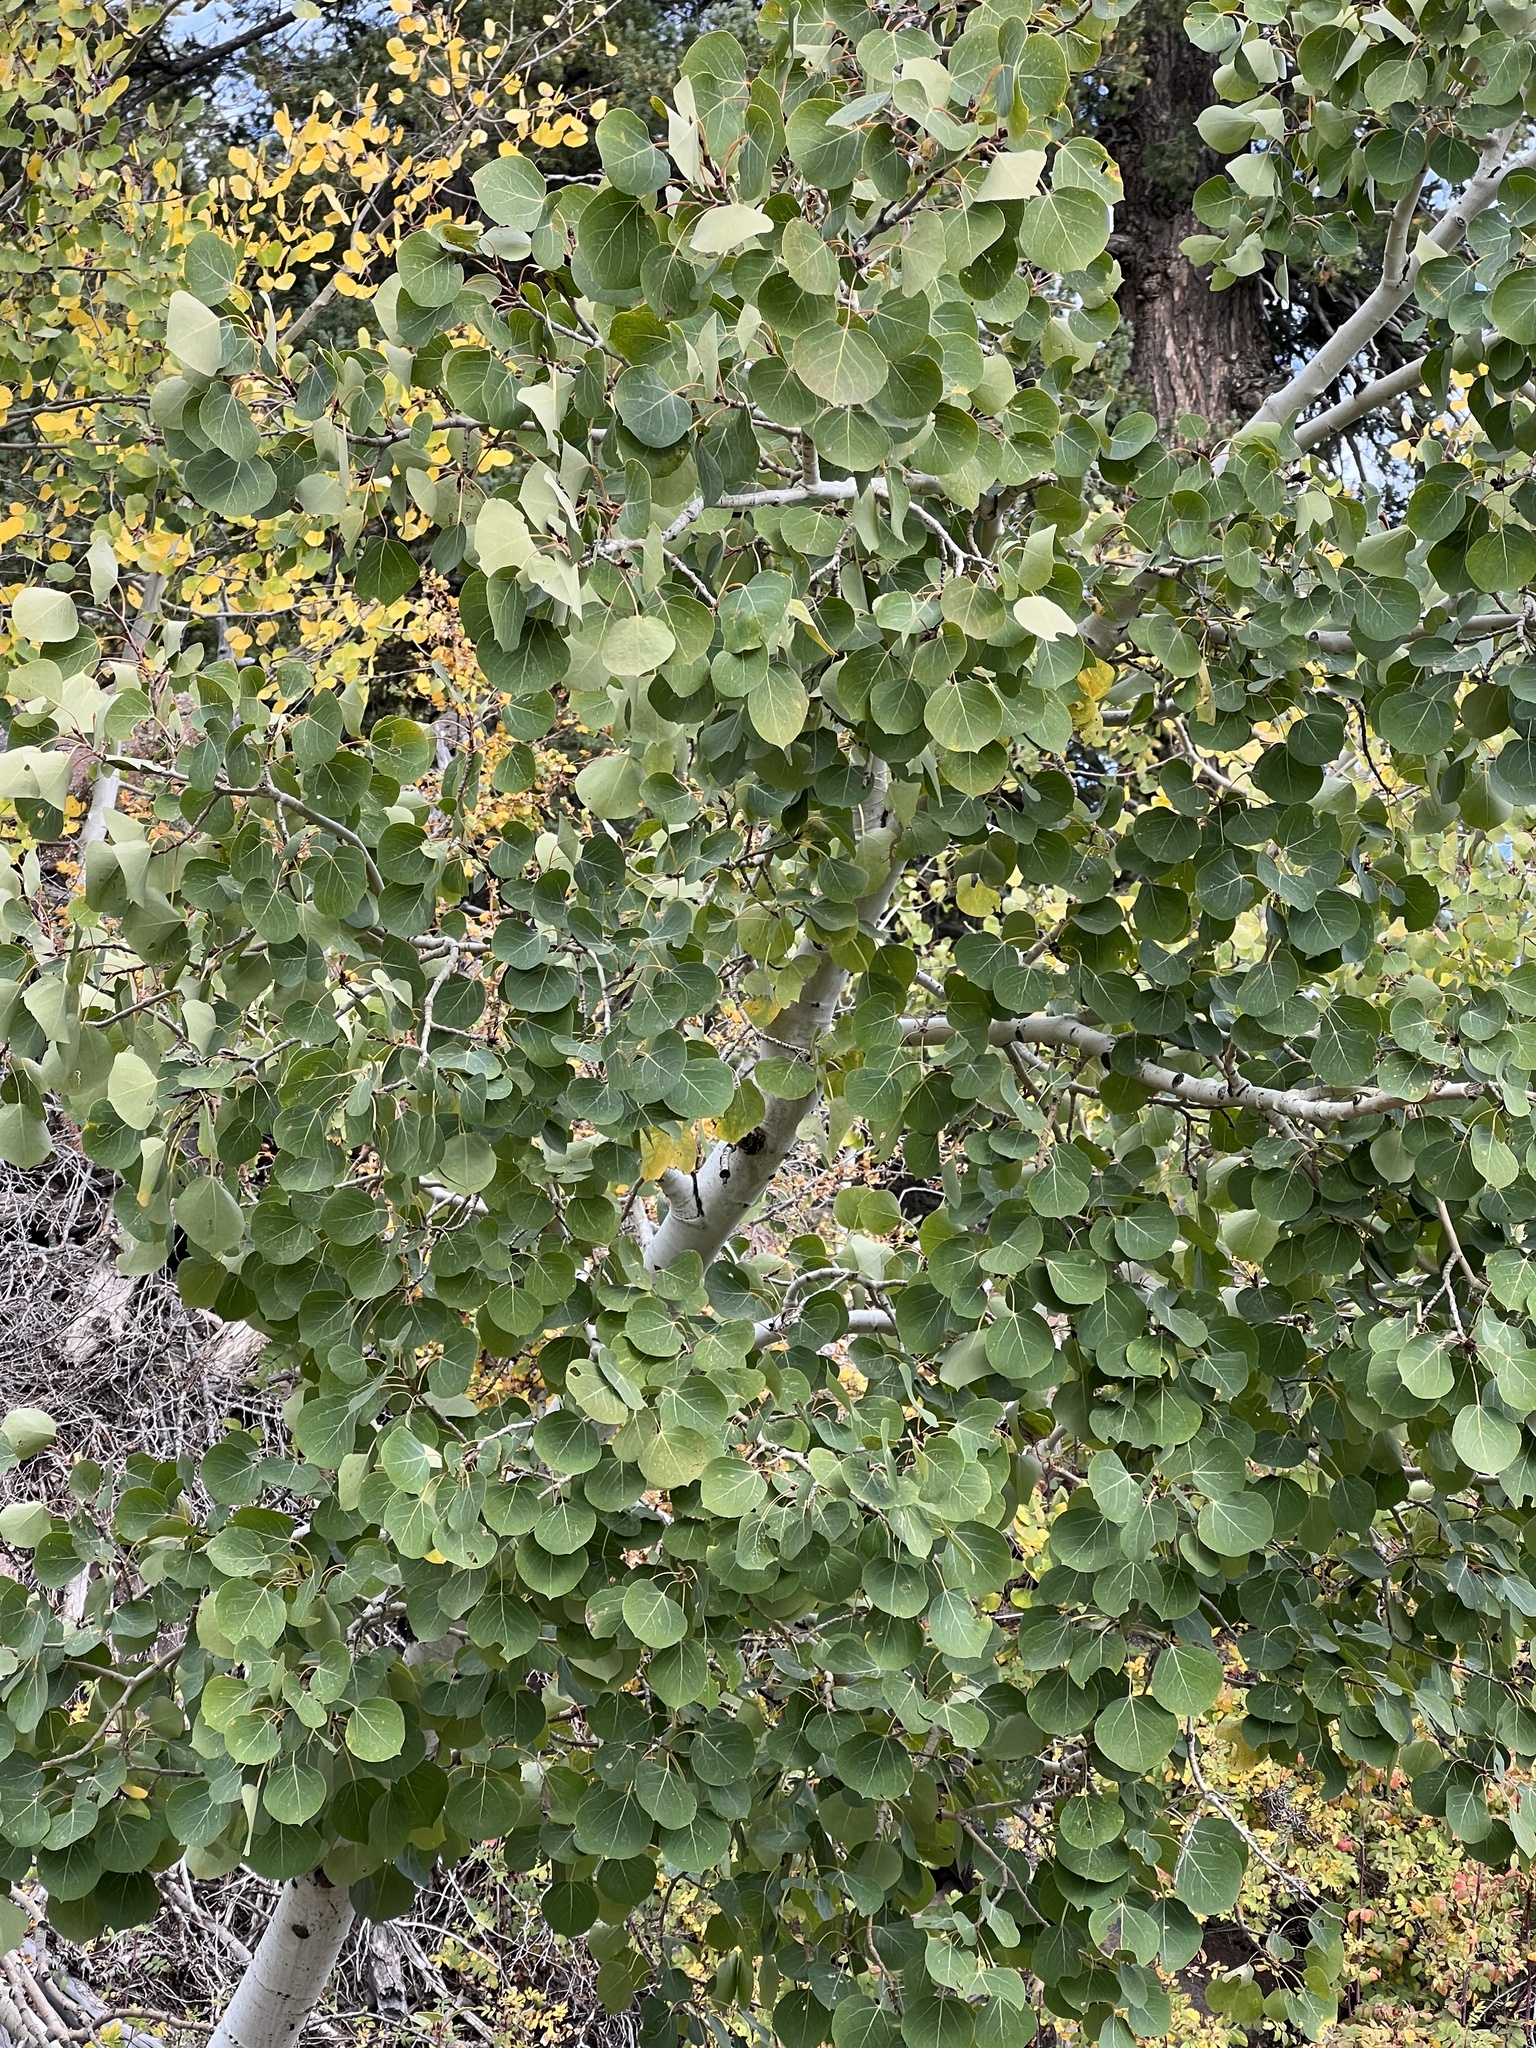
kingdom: Plantae
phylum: Tracheophyta
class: Magnoliopsida
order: Malpighiales
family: Salicaceae
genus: Populus
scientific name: Populus tremuloides
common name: Quaking aspen
